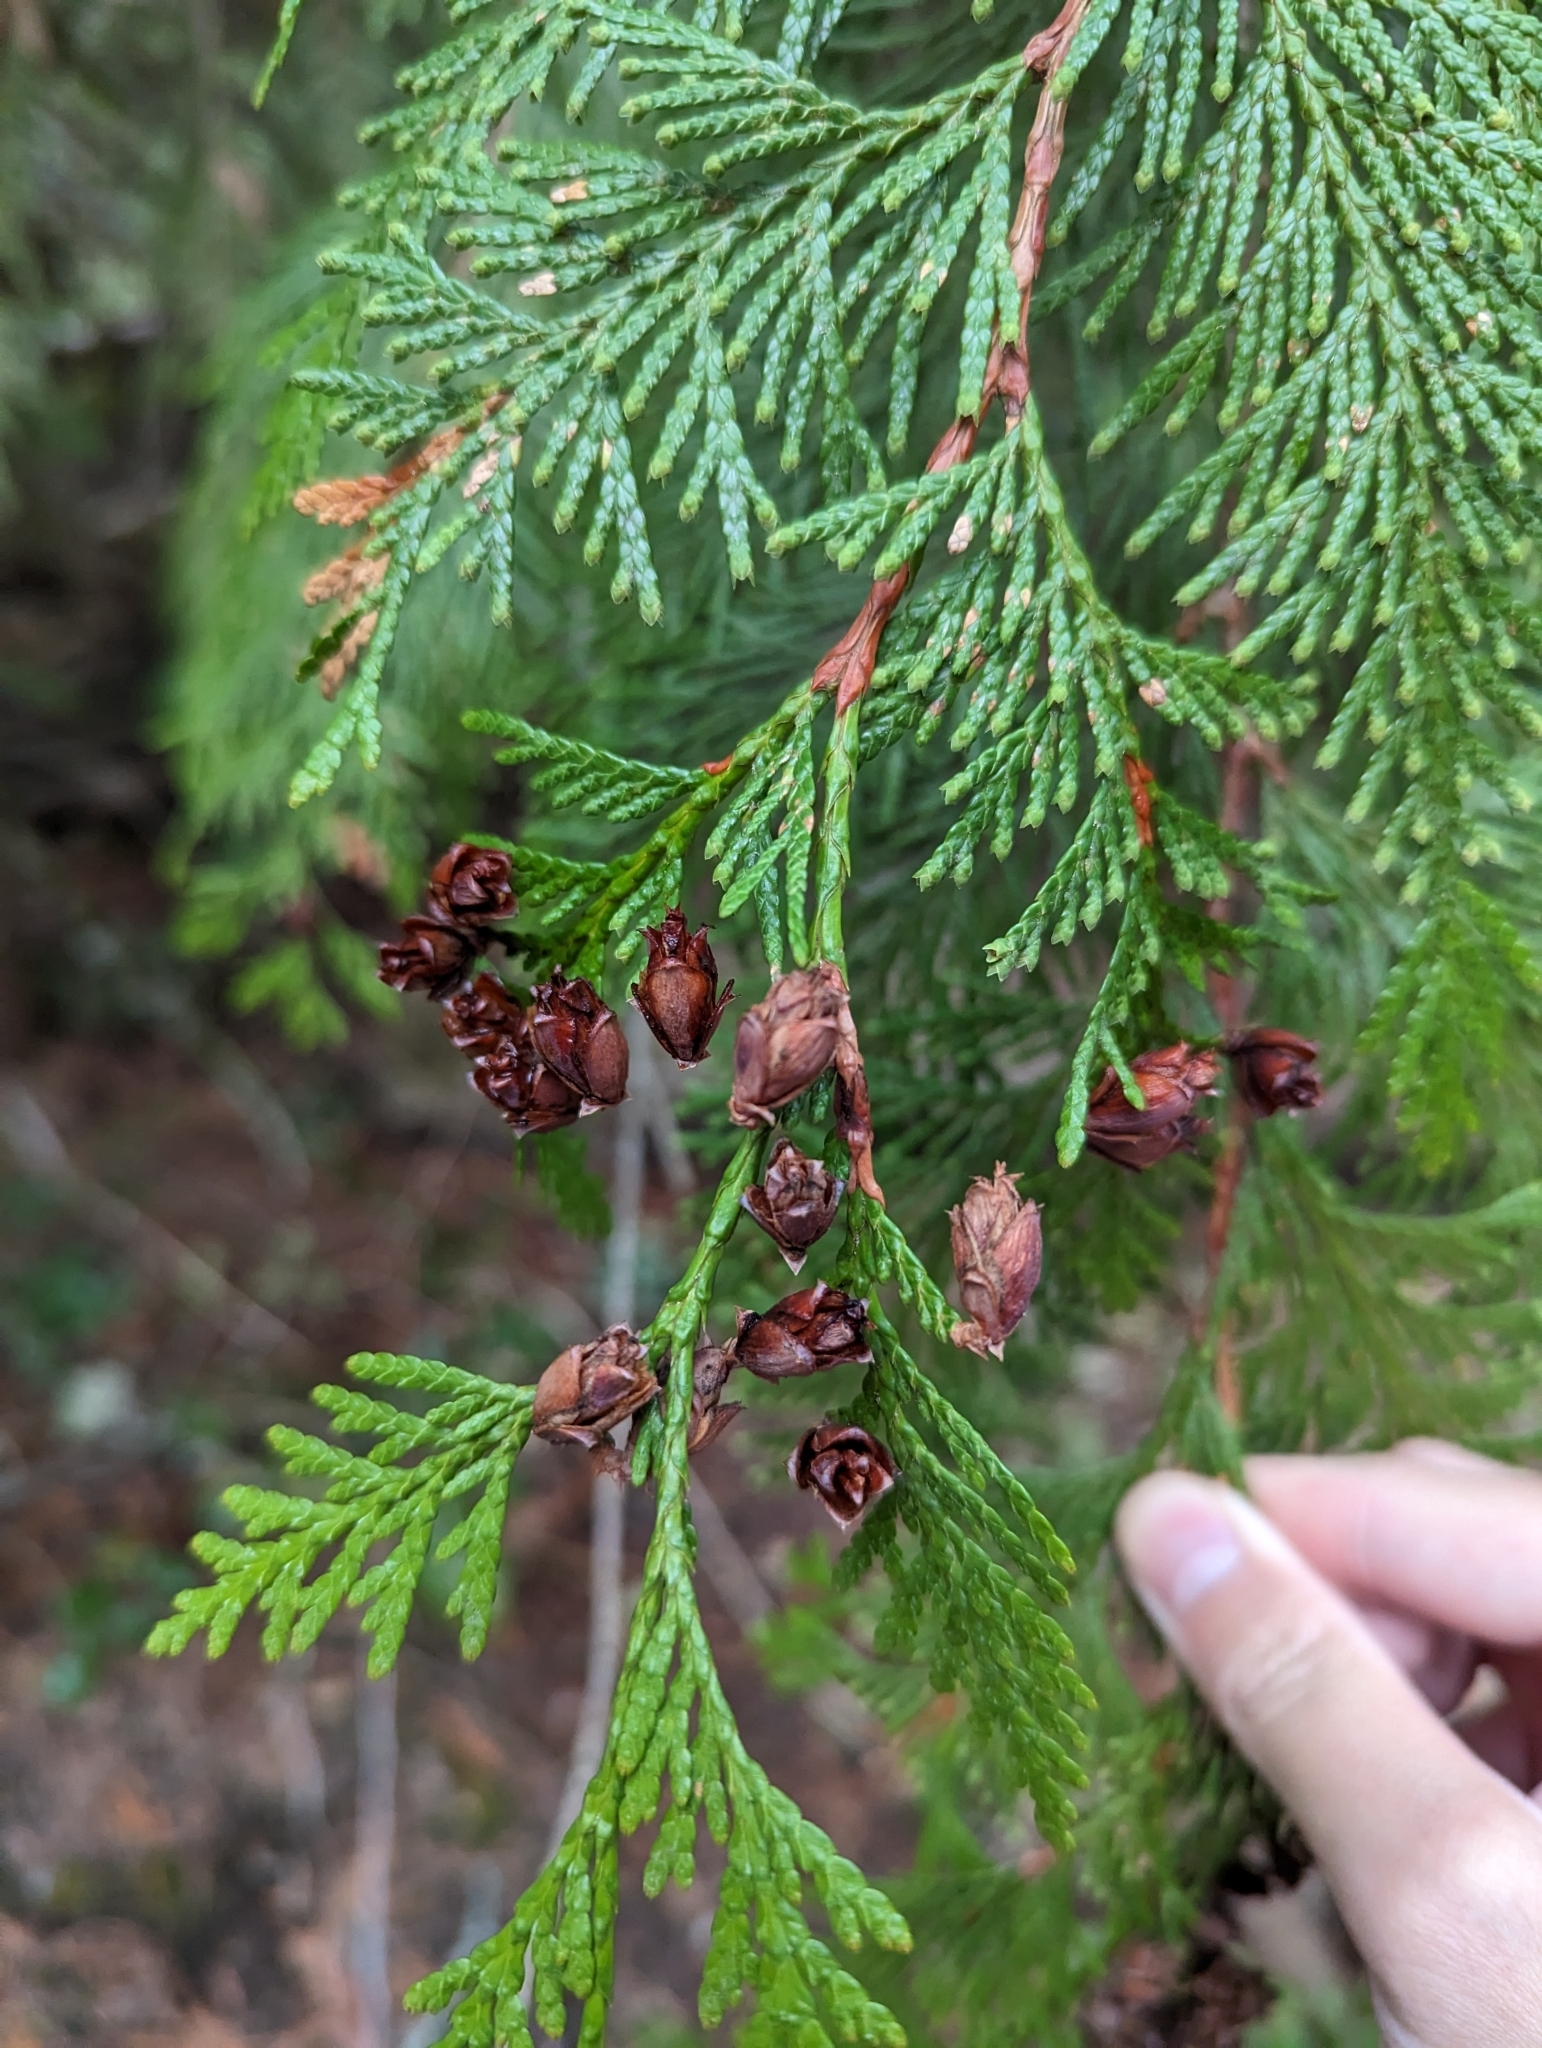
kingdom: Plantae
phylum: Tracheophyta
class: Pinopsida
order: Pinales
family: Cupressaceae
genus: Thuja
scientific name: Thuja plicata
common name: Western red-cedar
